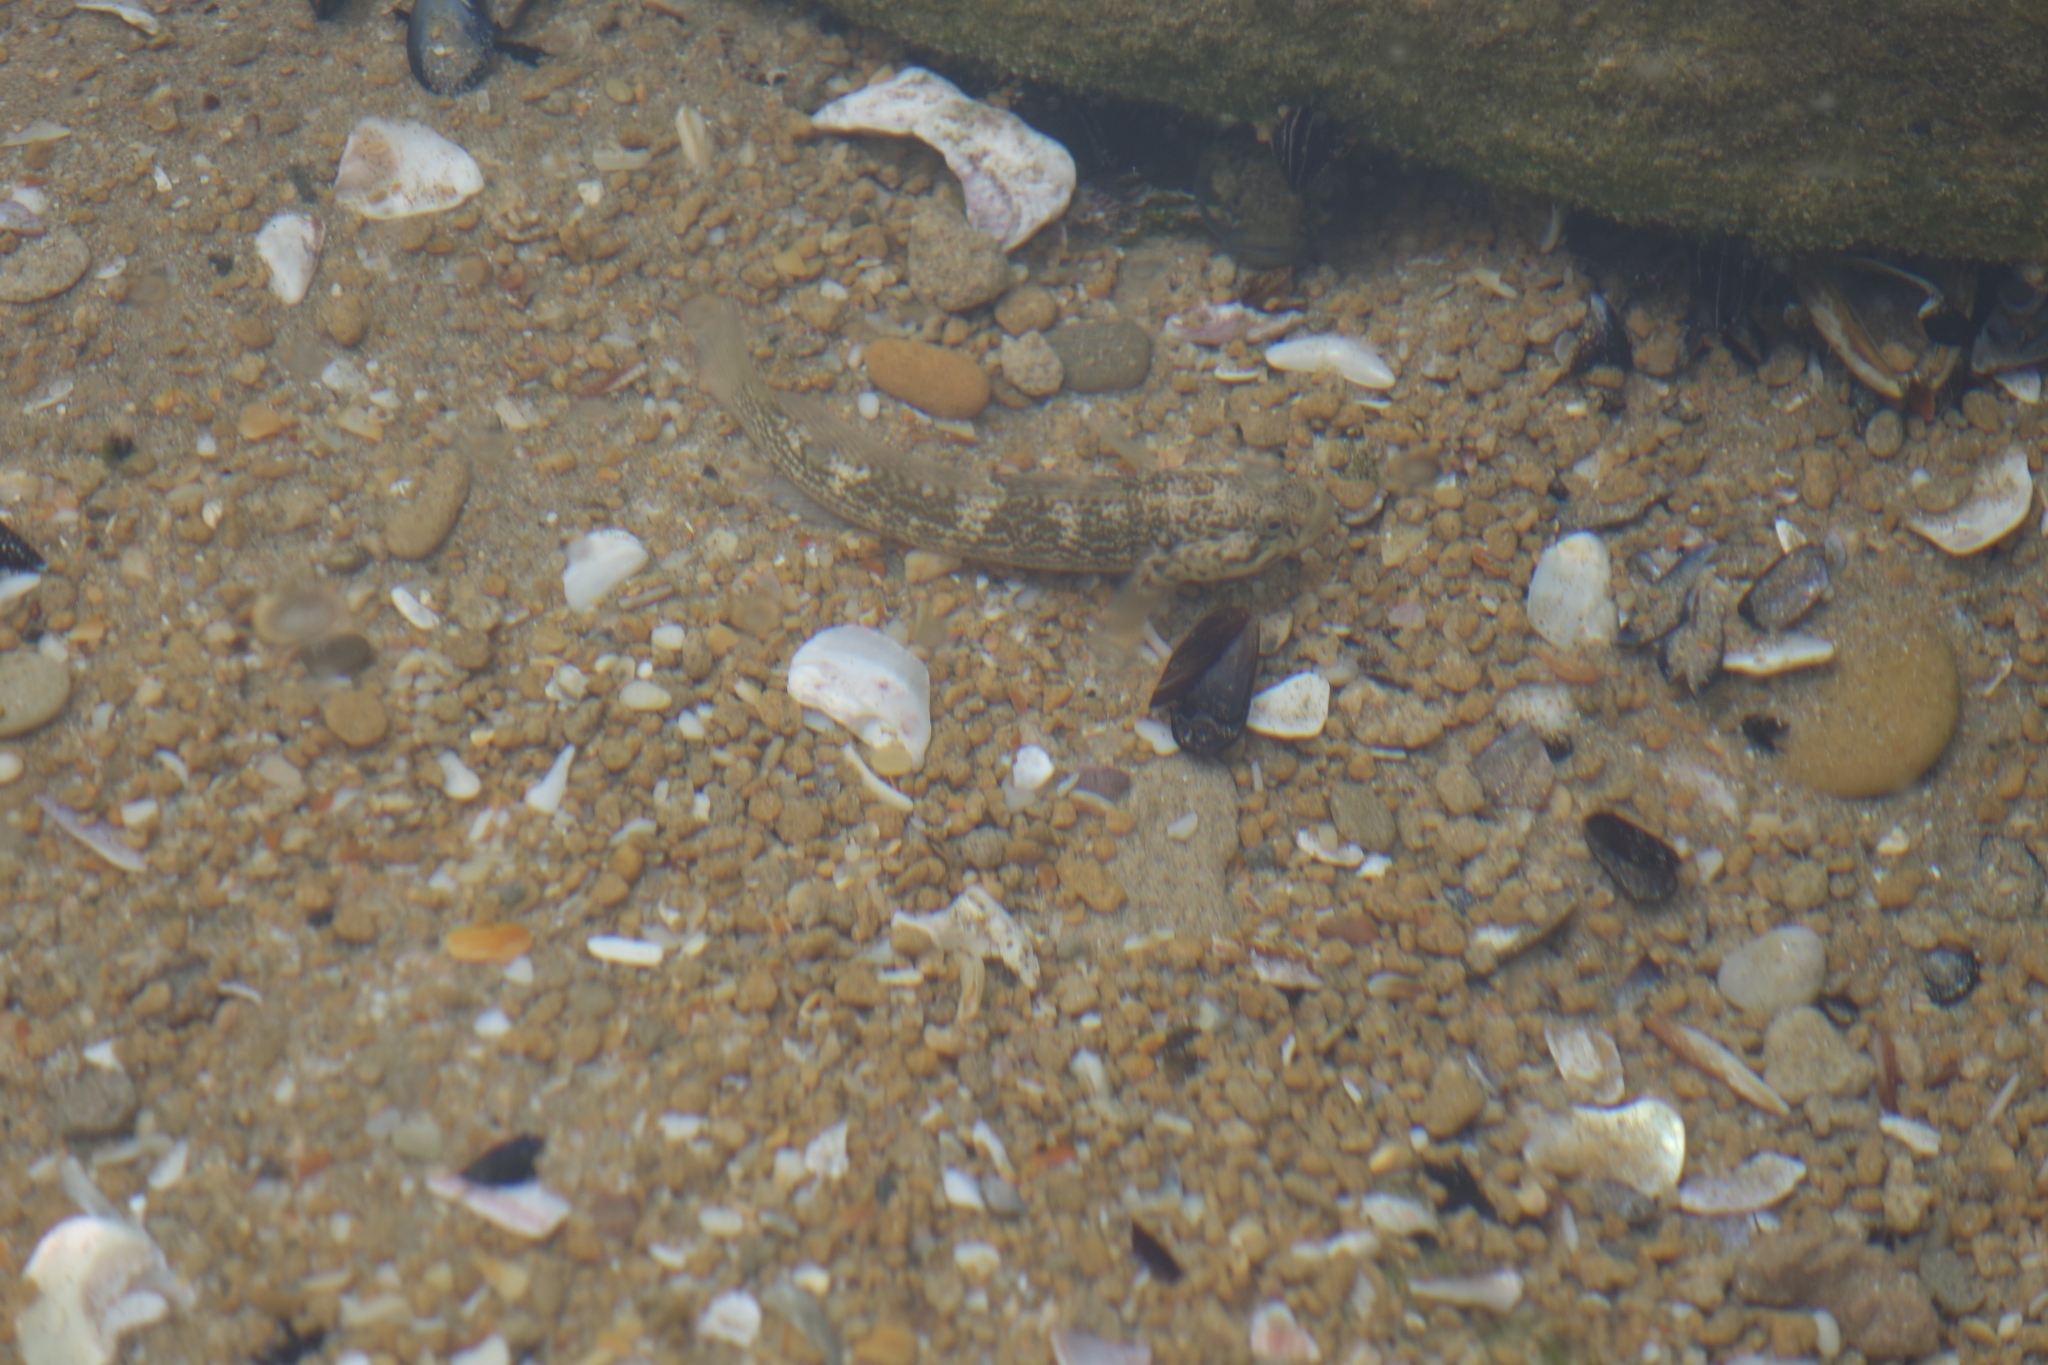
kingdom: Animalia
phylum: Chordata
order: Perciformes
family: Gobiidae
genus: Caffrogobius
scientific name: Caffrogobius caffer
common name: Banded goby
